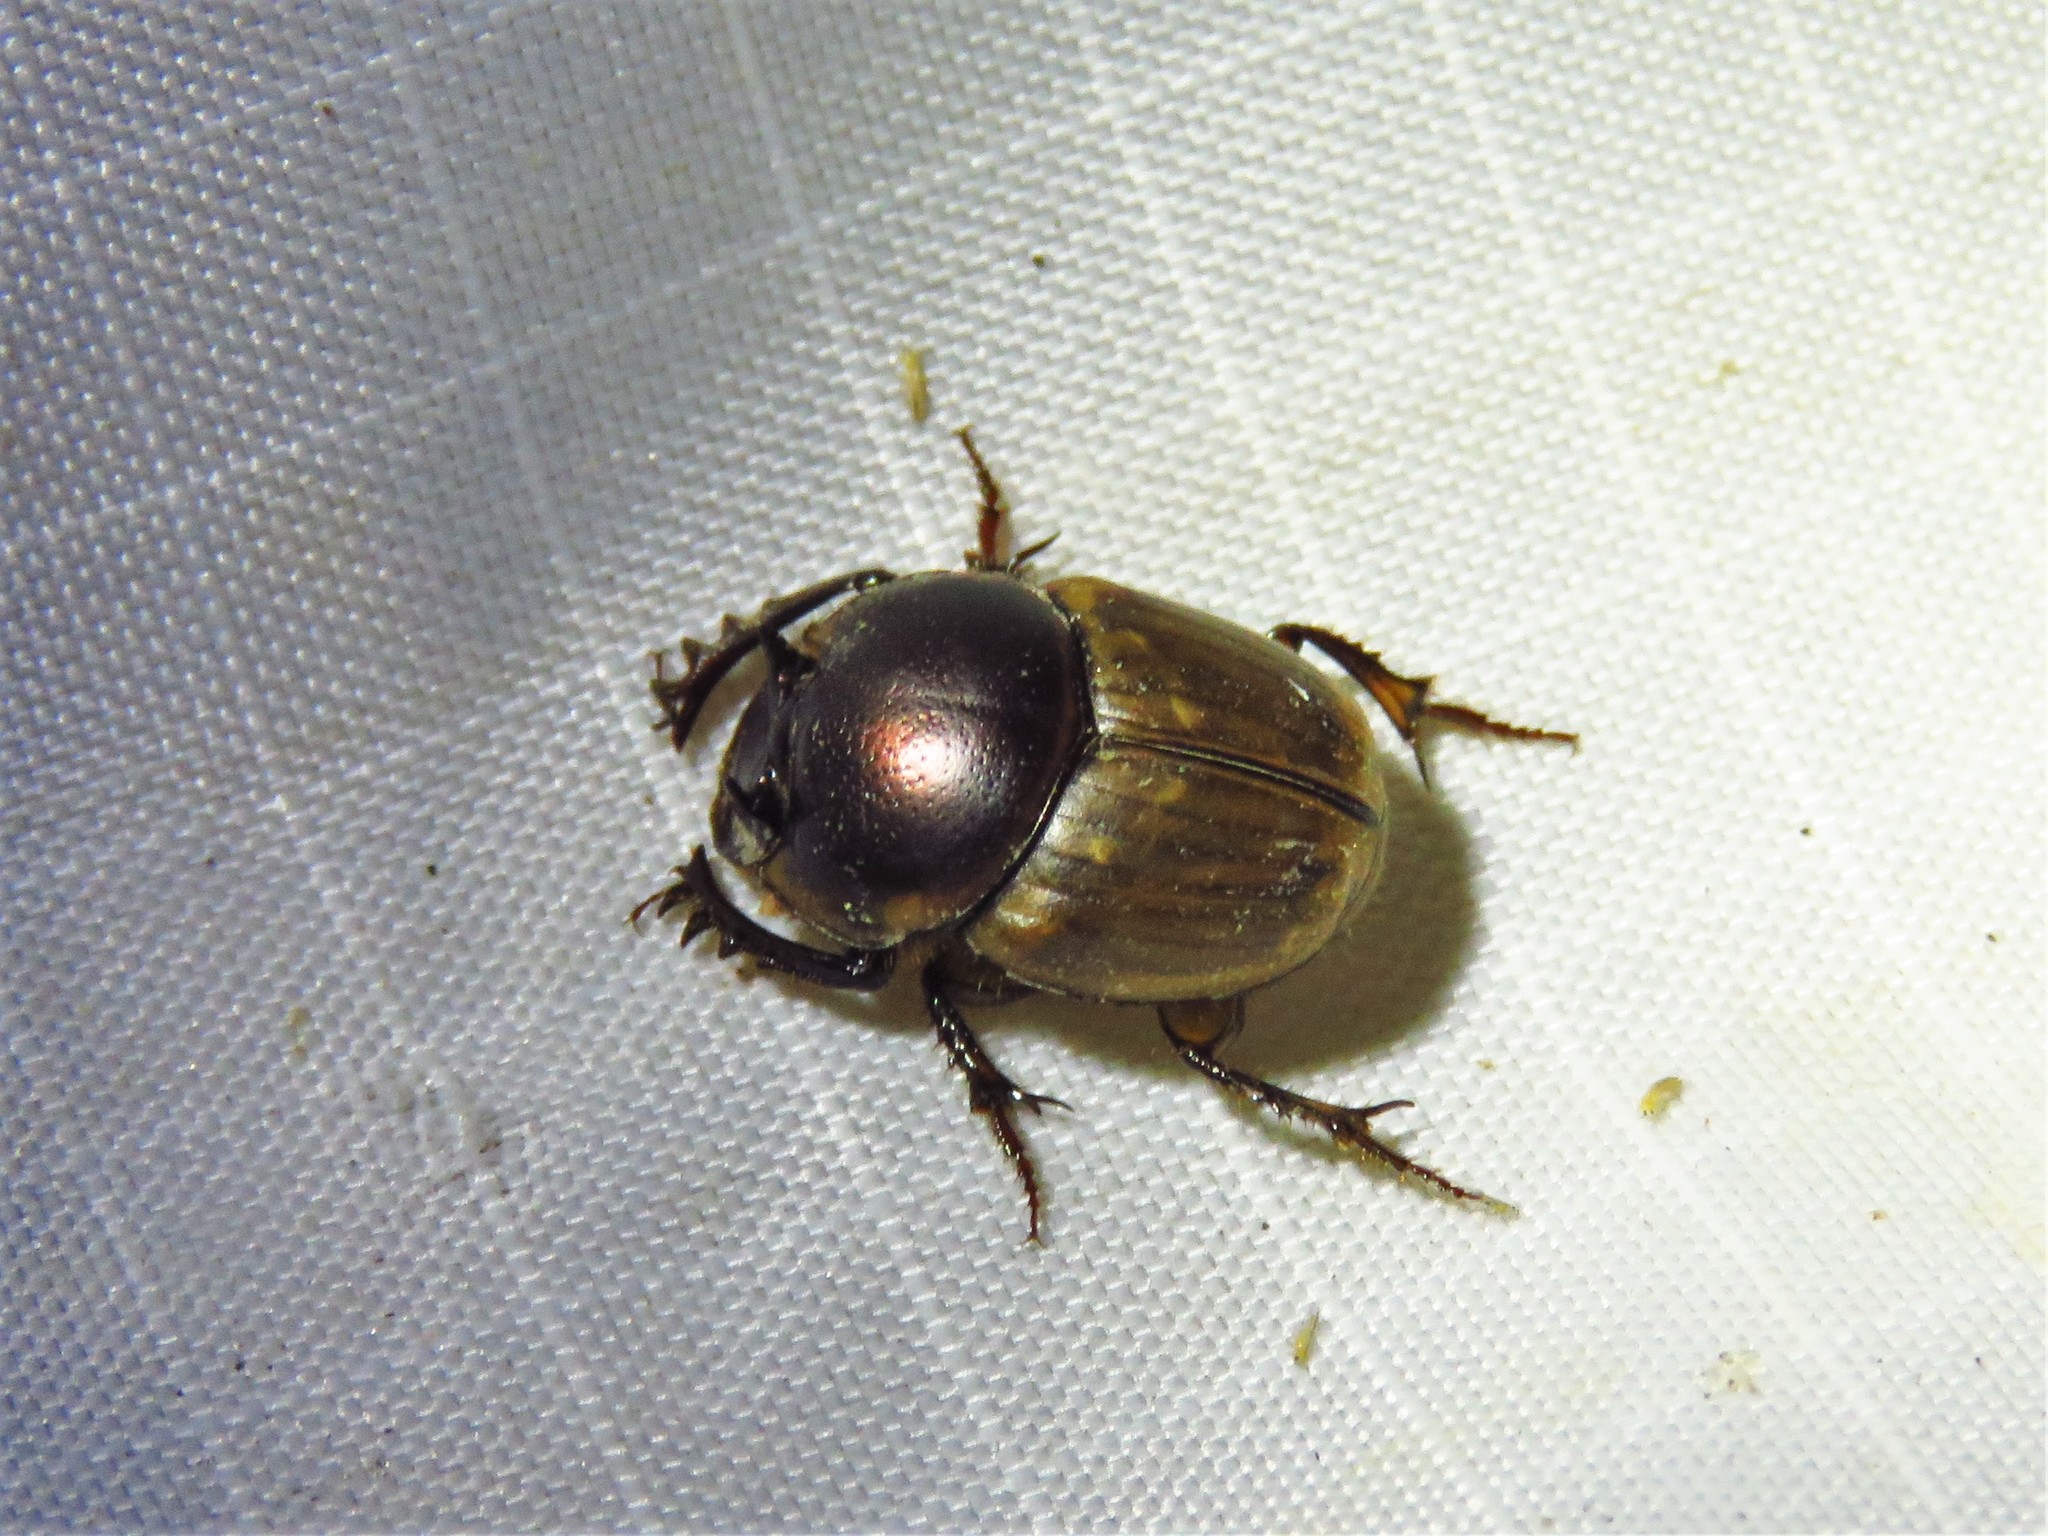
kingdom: Animalia
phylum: Arthropoda
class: Insecta
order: Coleoptera
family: Scarabaeidae
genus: Digitonthophagus
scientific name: Digitonthophagus gazella
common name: Brown dung beetle
